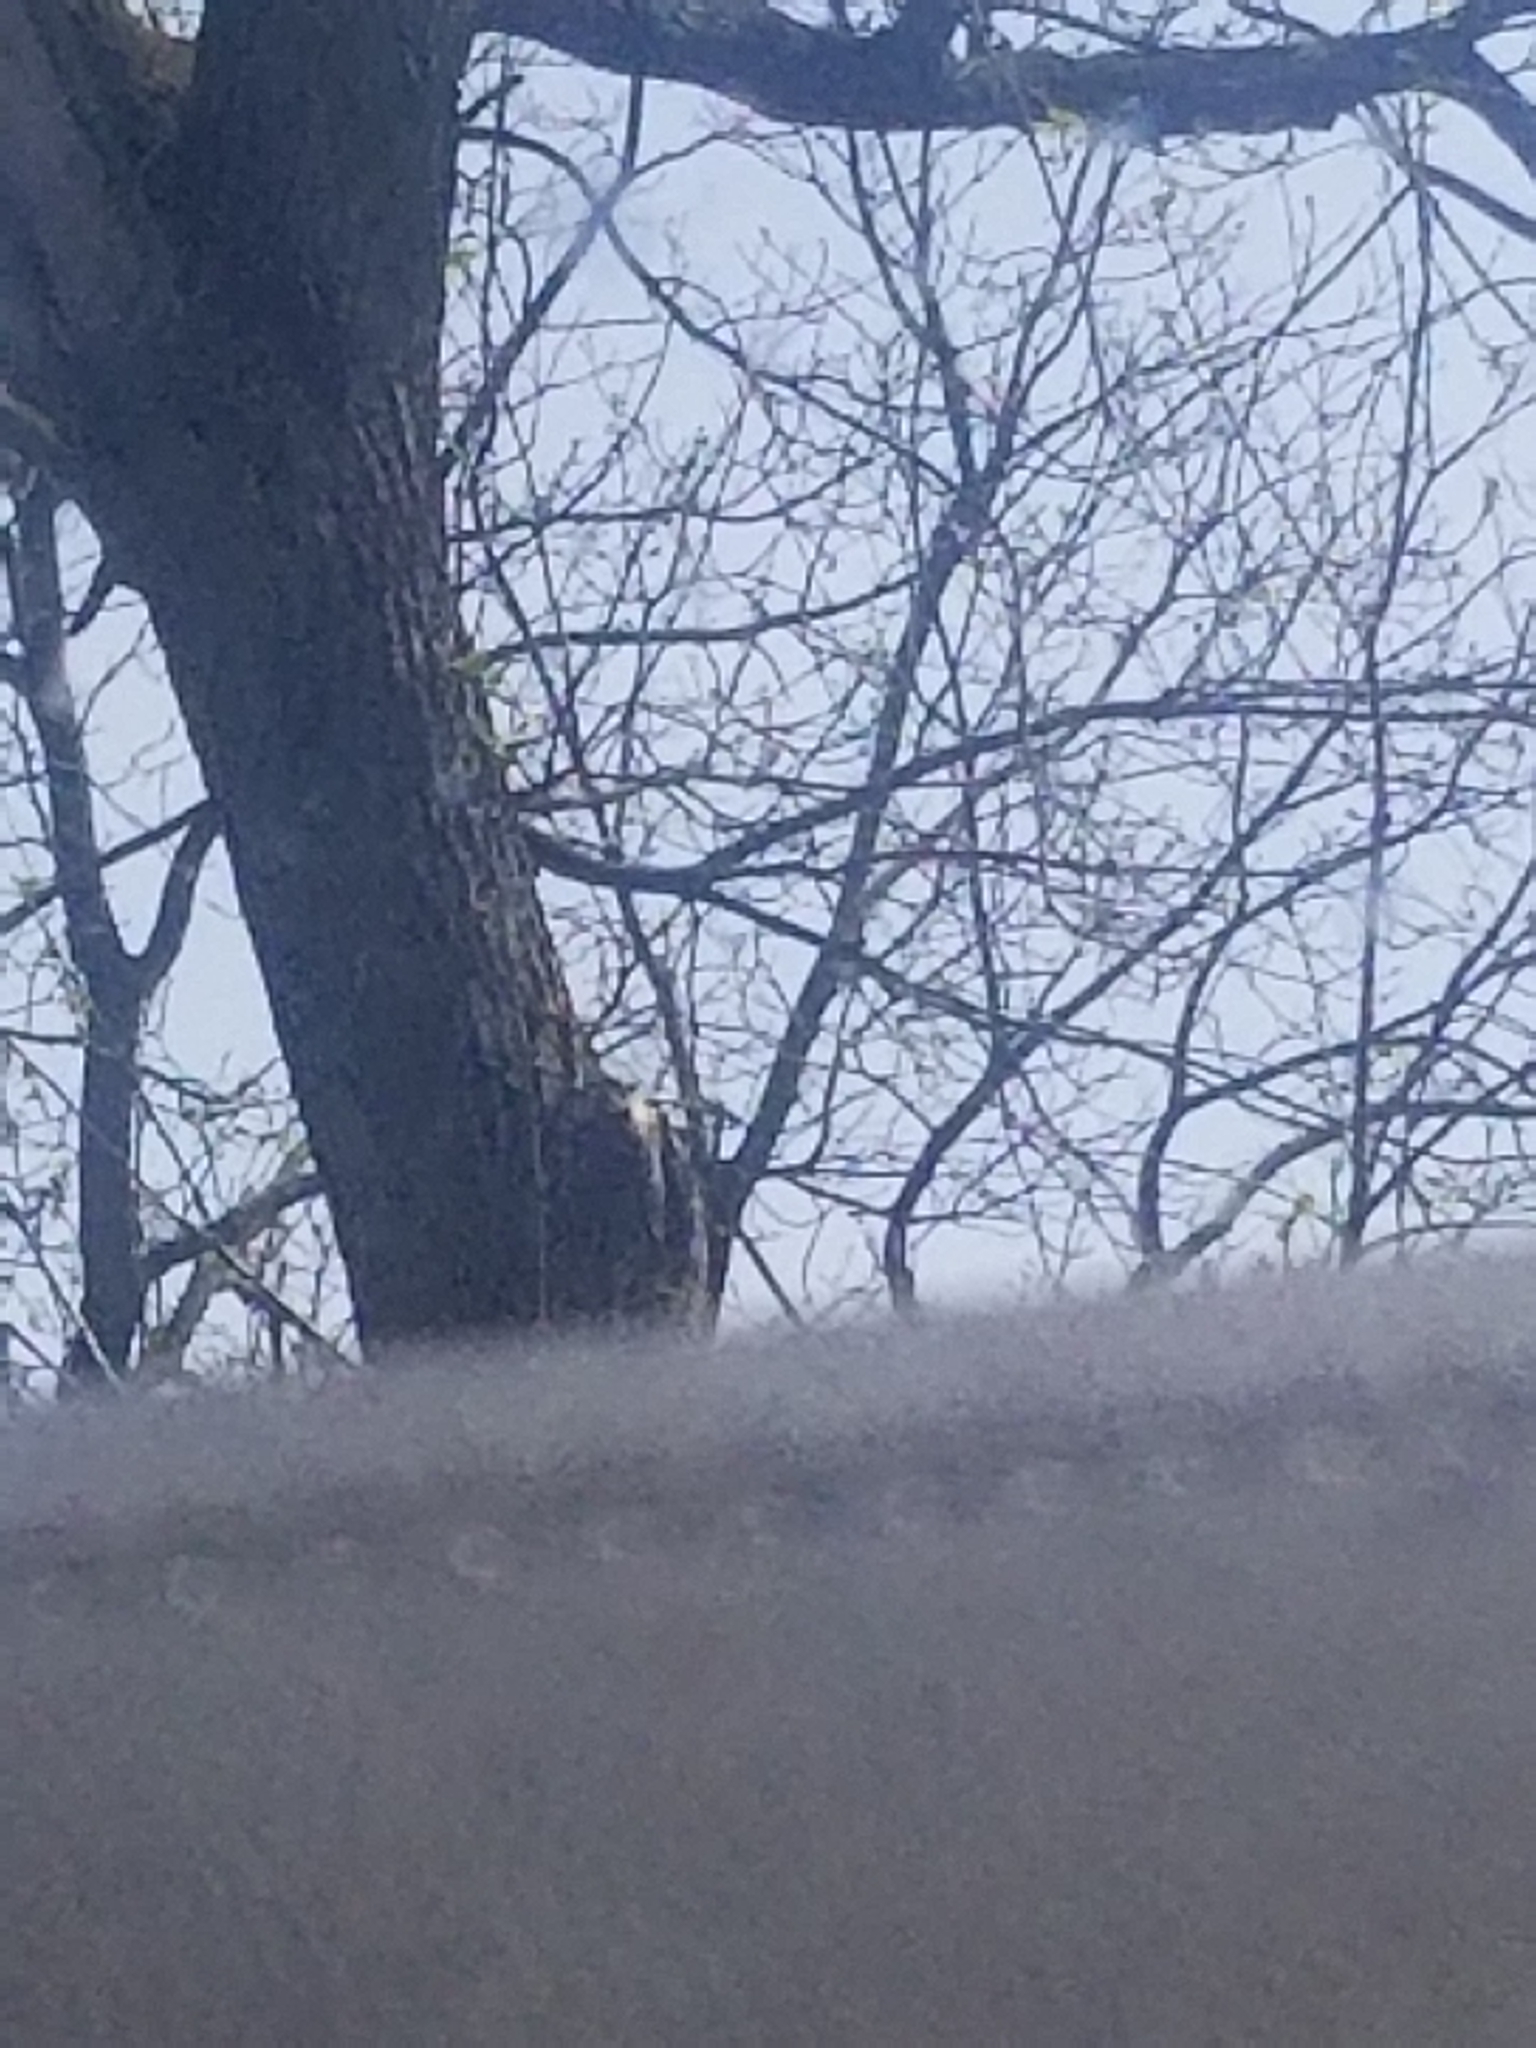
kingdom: Animalia
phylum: Chordata
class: Aves
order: Coraciiformes
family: Alcedinidae
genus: Megaceryle
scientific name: Megaceryle alcyon
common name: Belted kingfisher
